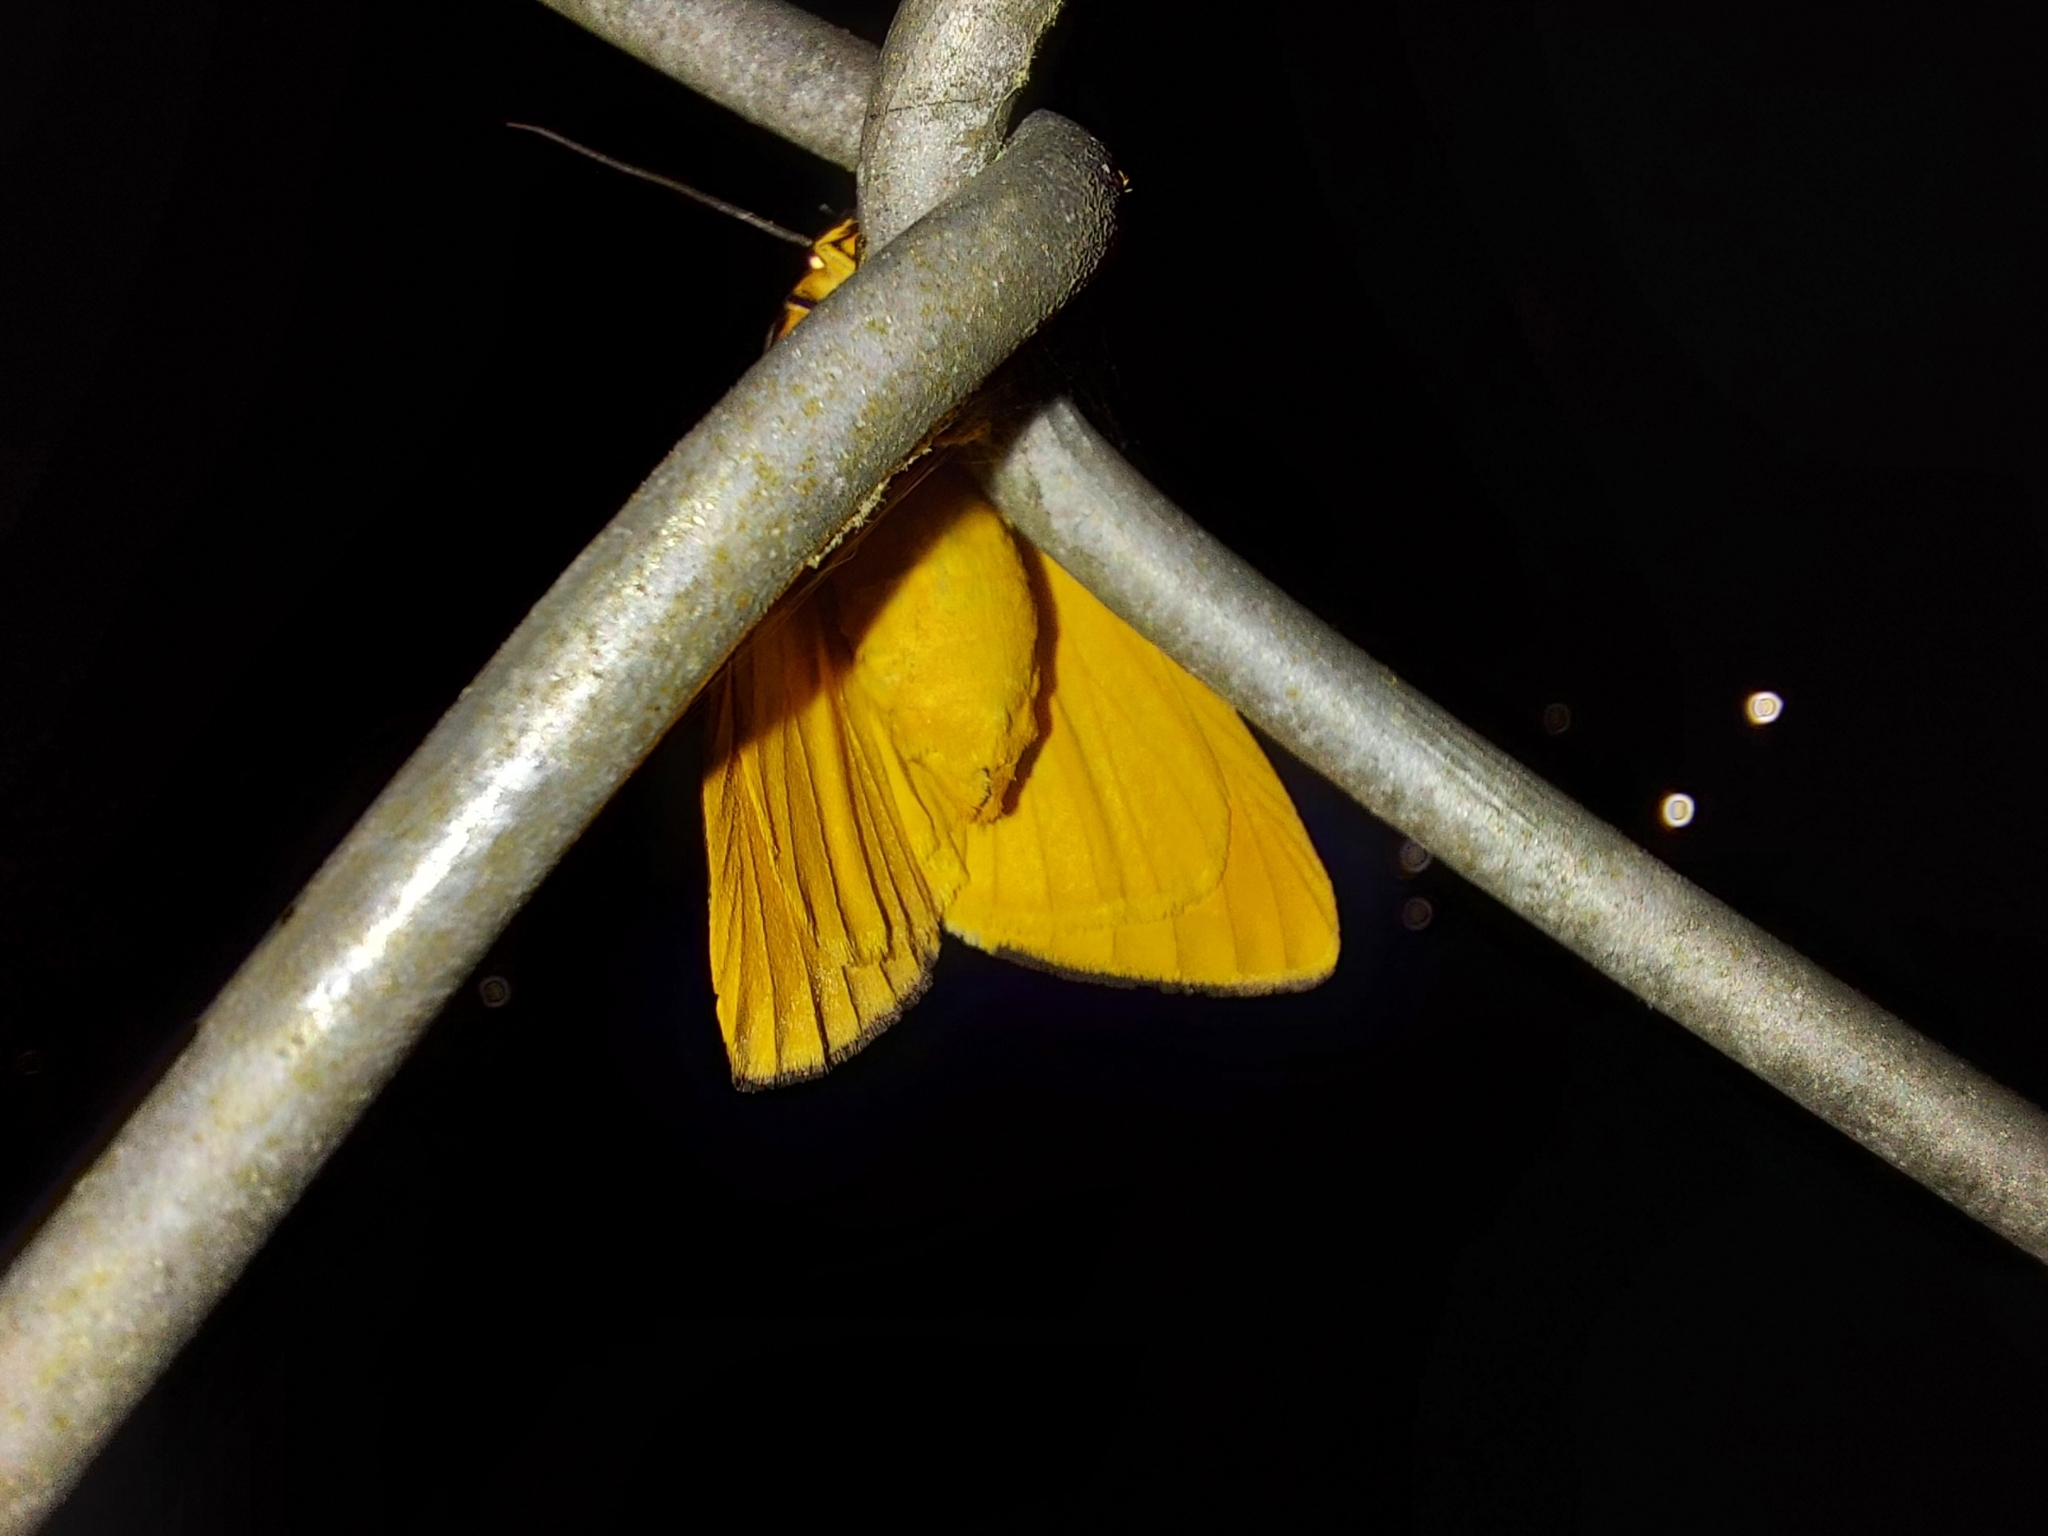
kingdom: Animalia
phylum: Arthropoda
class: Insecta
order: Lepidoptera
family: Erebidae
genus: Haploa
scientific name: Haploa clymene
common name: Clymene moth
